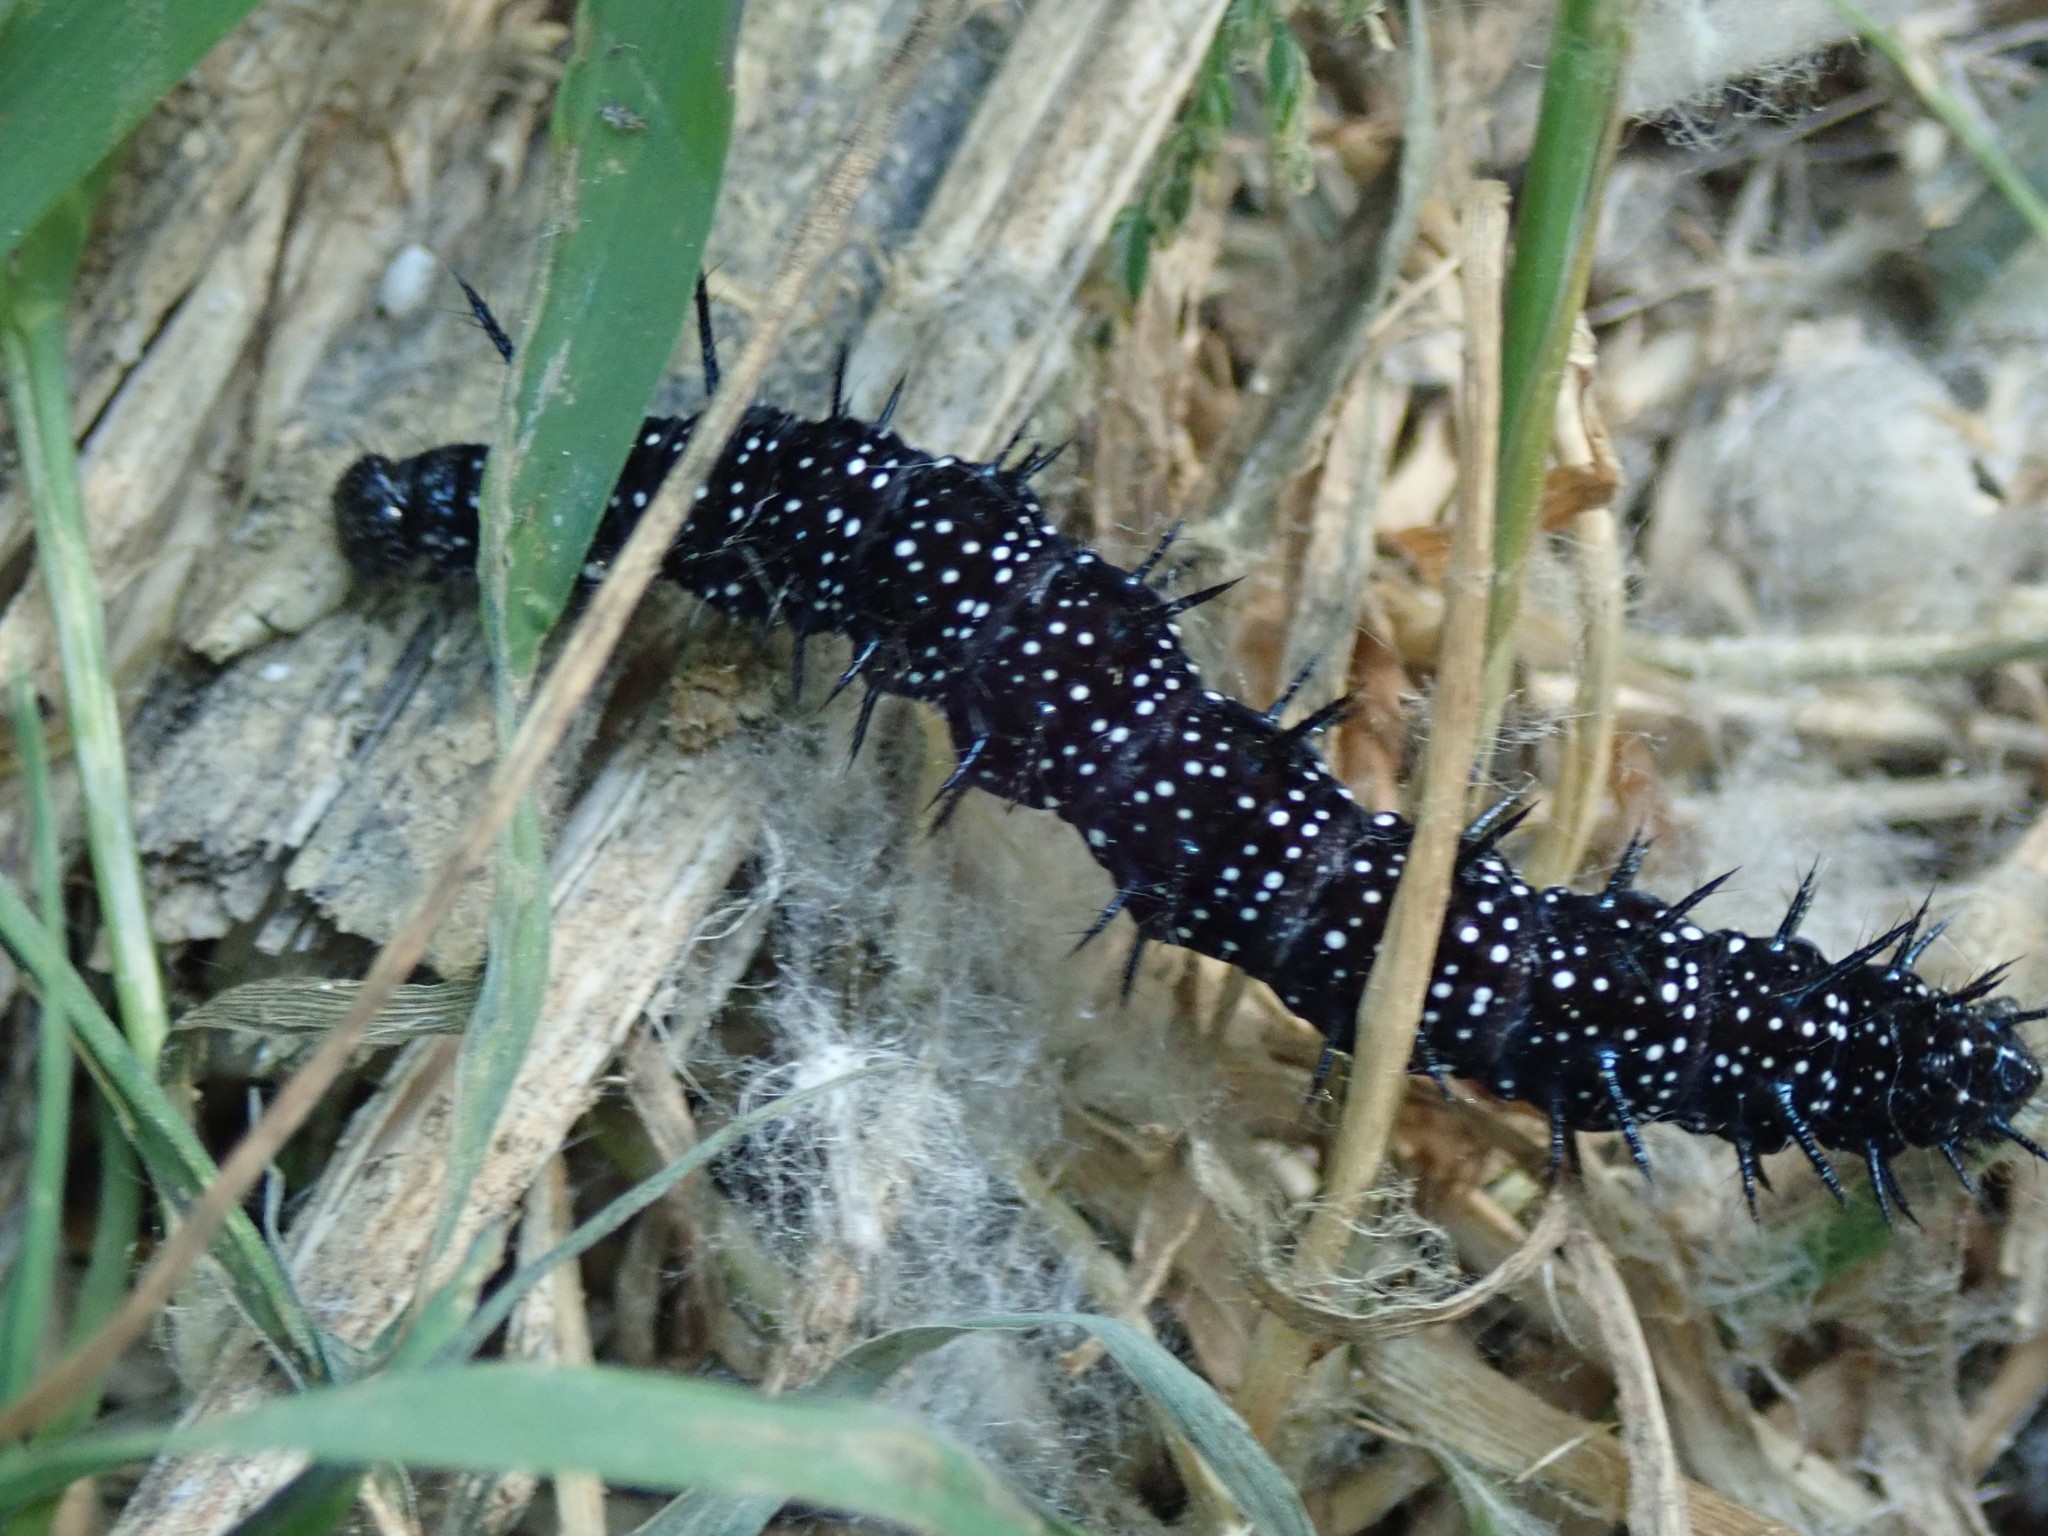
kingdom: Animalia
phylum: Arthropoda
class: Insecta
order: Lepidoptera
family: Nymphalidae
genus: Aglais
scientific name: Aglais io
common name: Peacock
